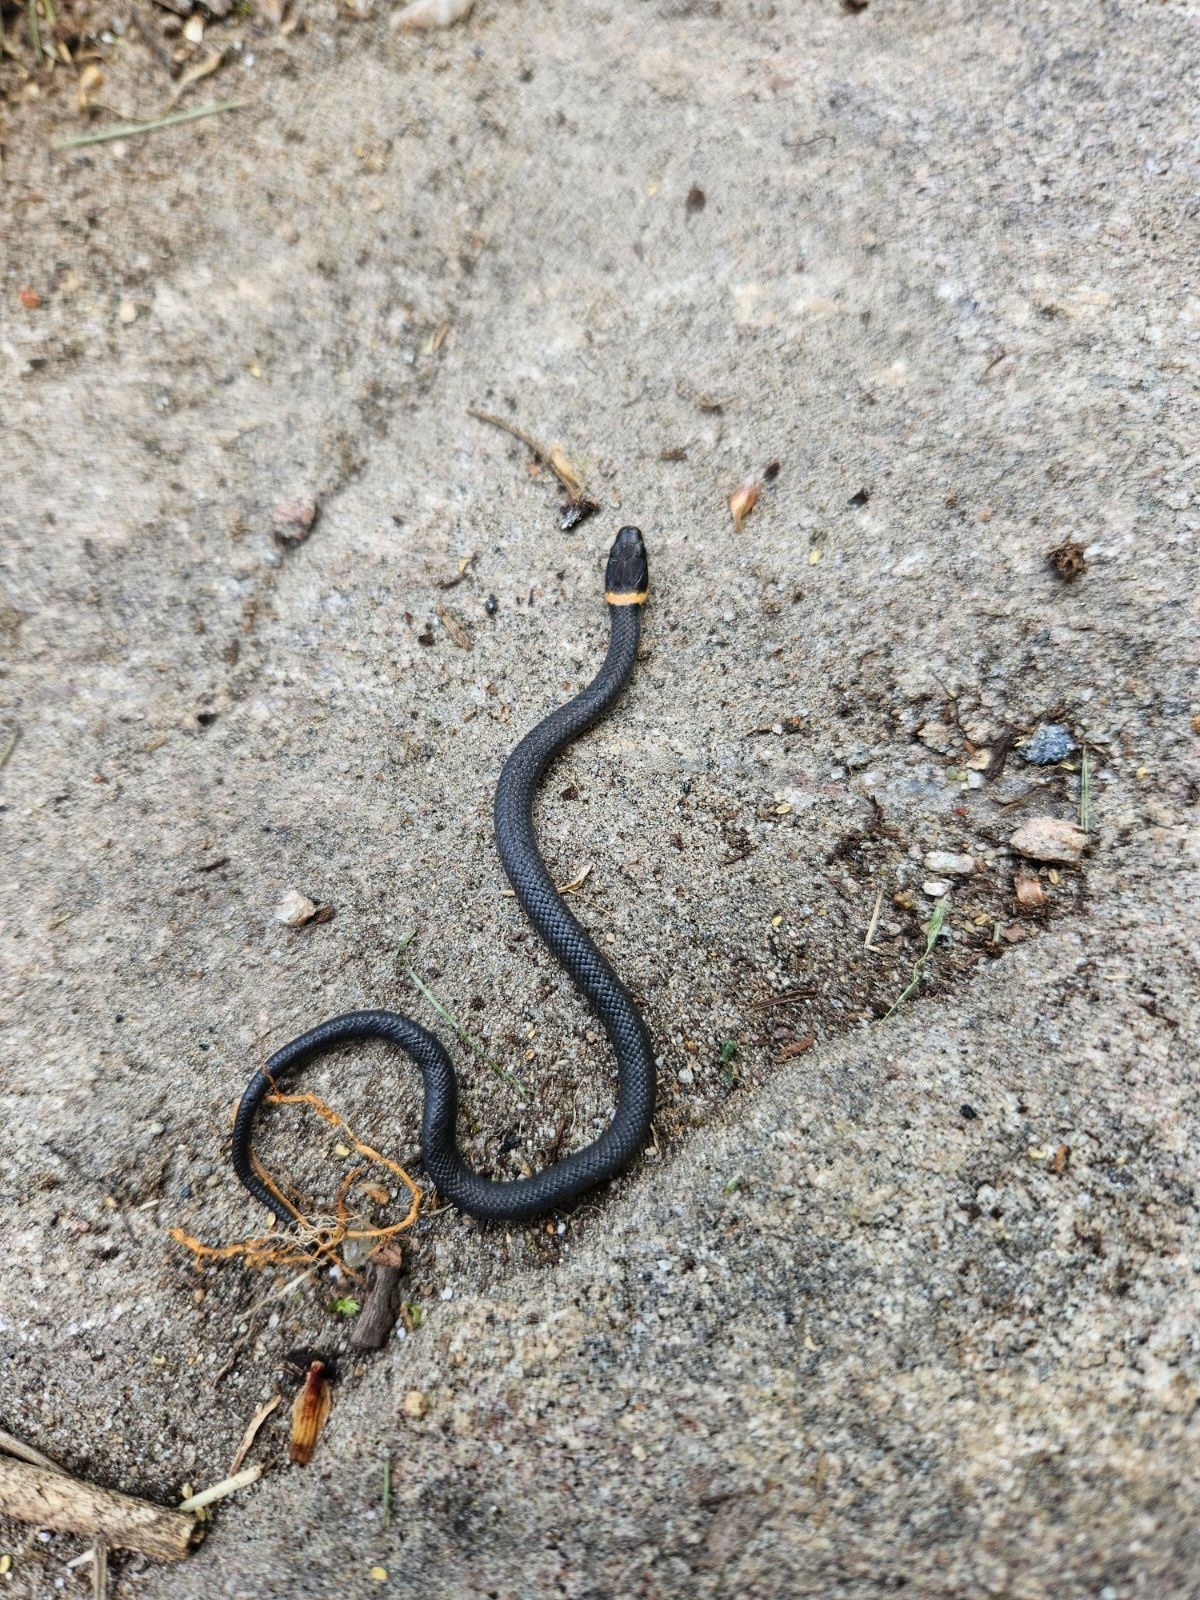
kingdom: Animalia
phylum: Chordata
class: Squamata
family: Colubridae
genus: Diadophis
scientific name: Diadophis punctatus
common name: Ringneck snake
